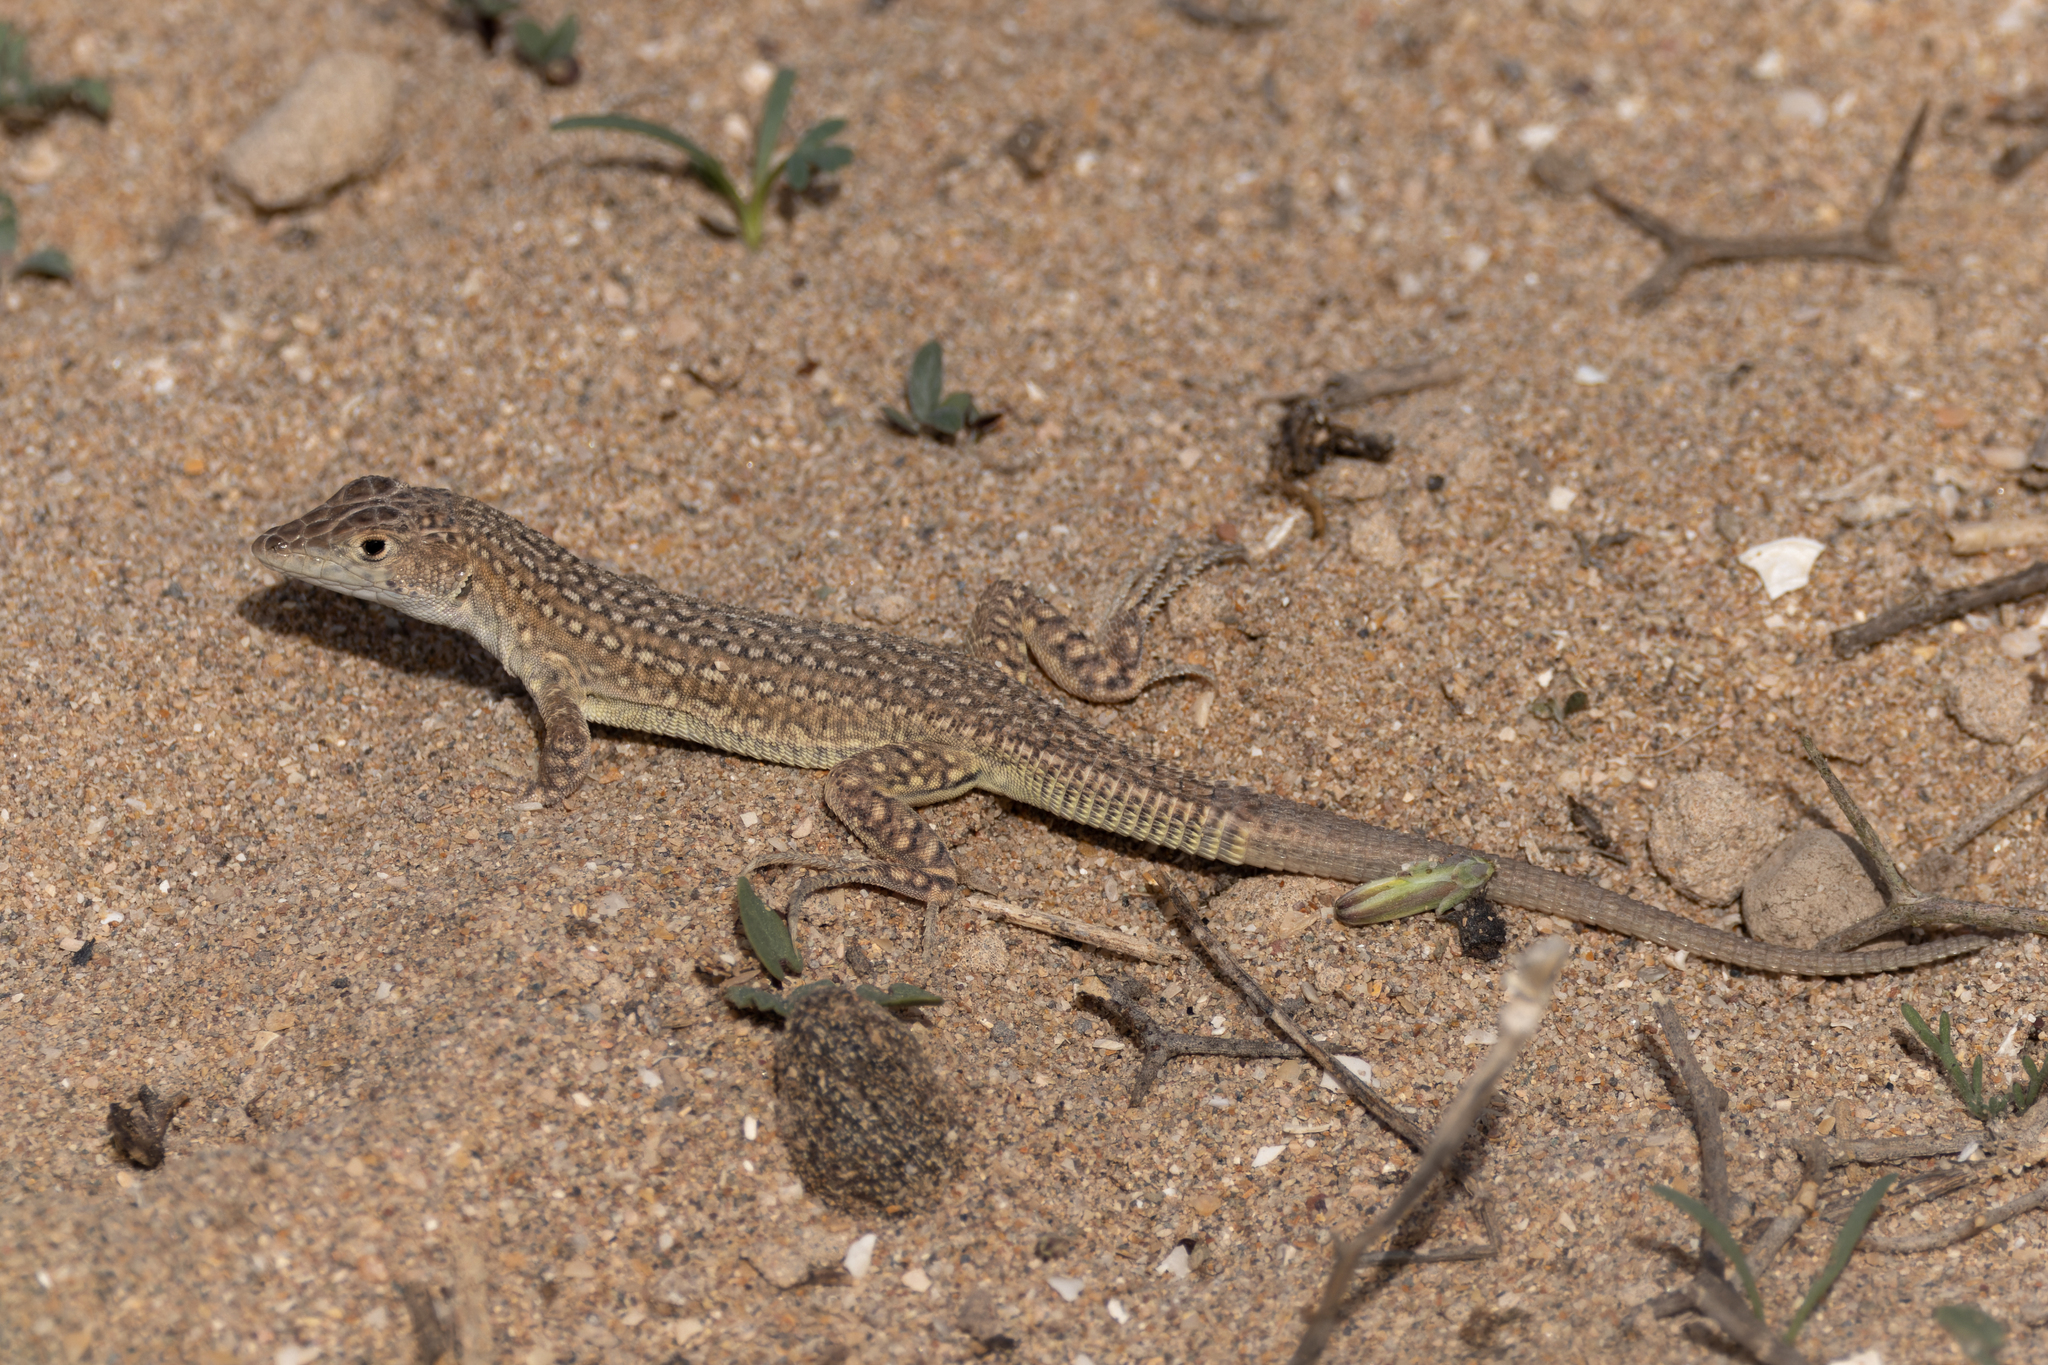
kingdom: Animalia
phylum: Chordata
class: Squamata
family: Lacertidae
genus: Acanthodactylus
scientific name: Acanthodactylus aureus
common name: Golden fringe-fingered lizard
